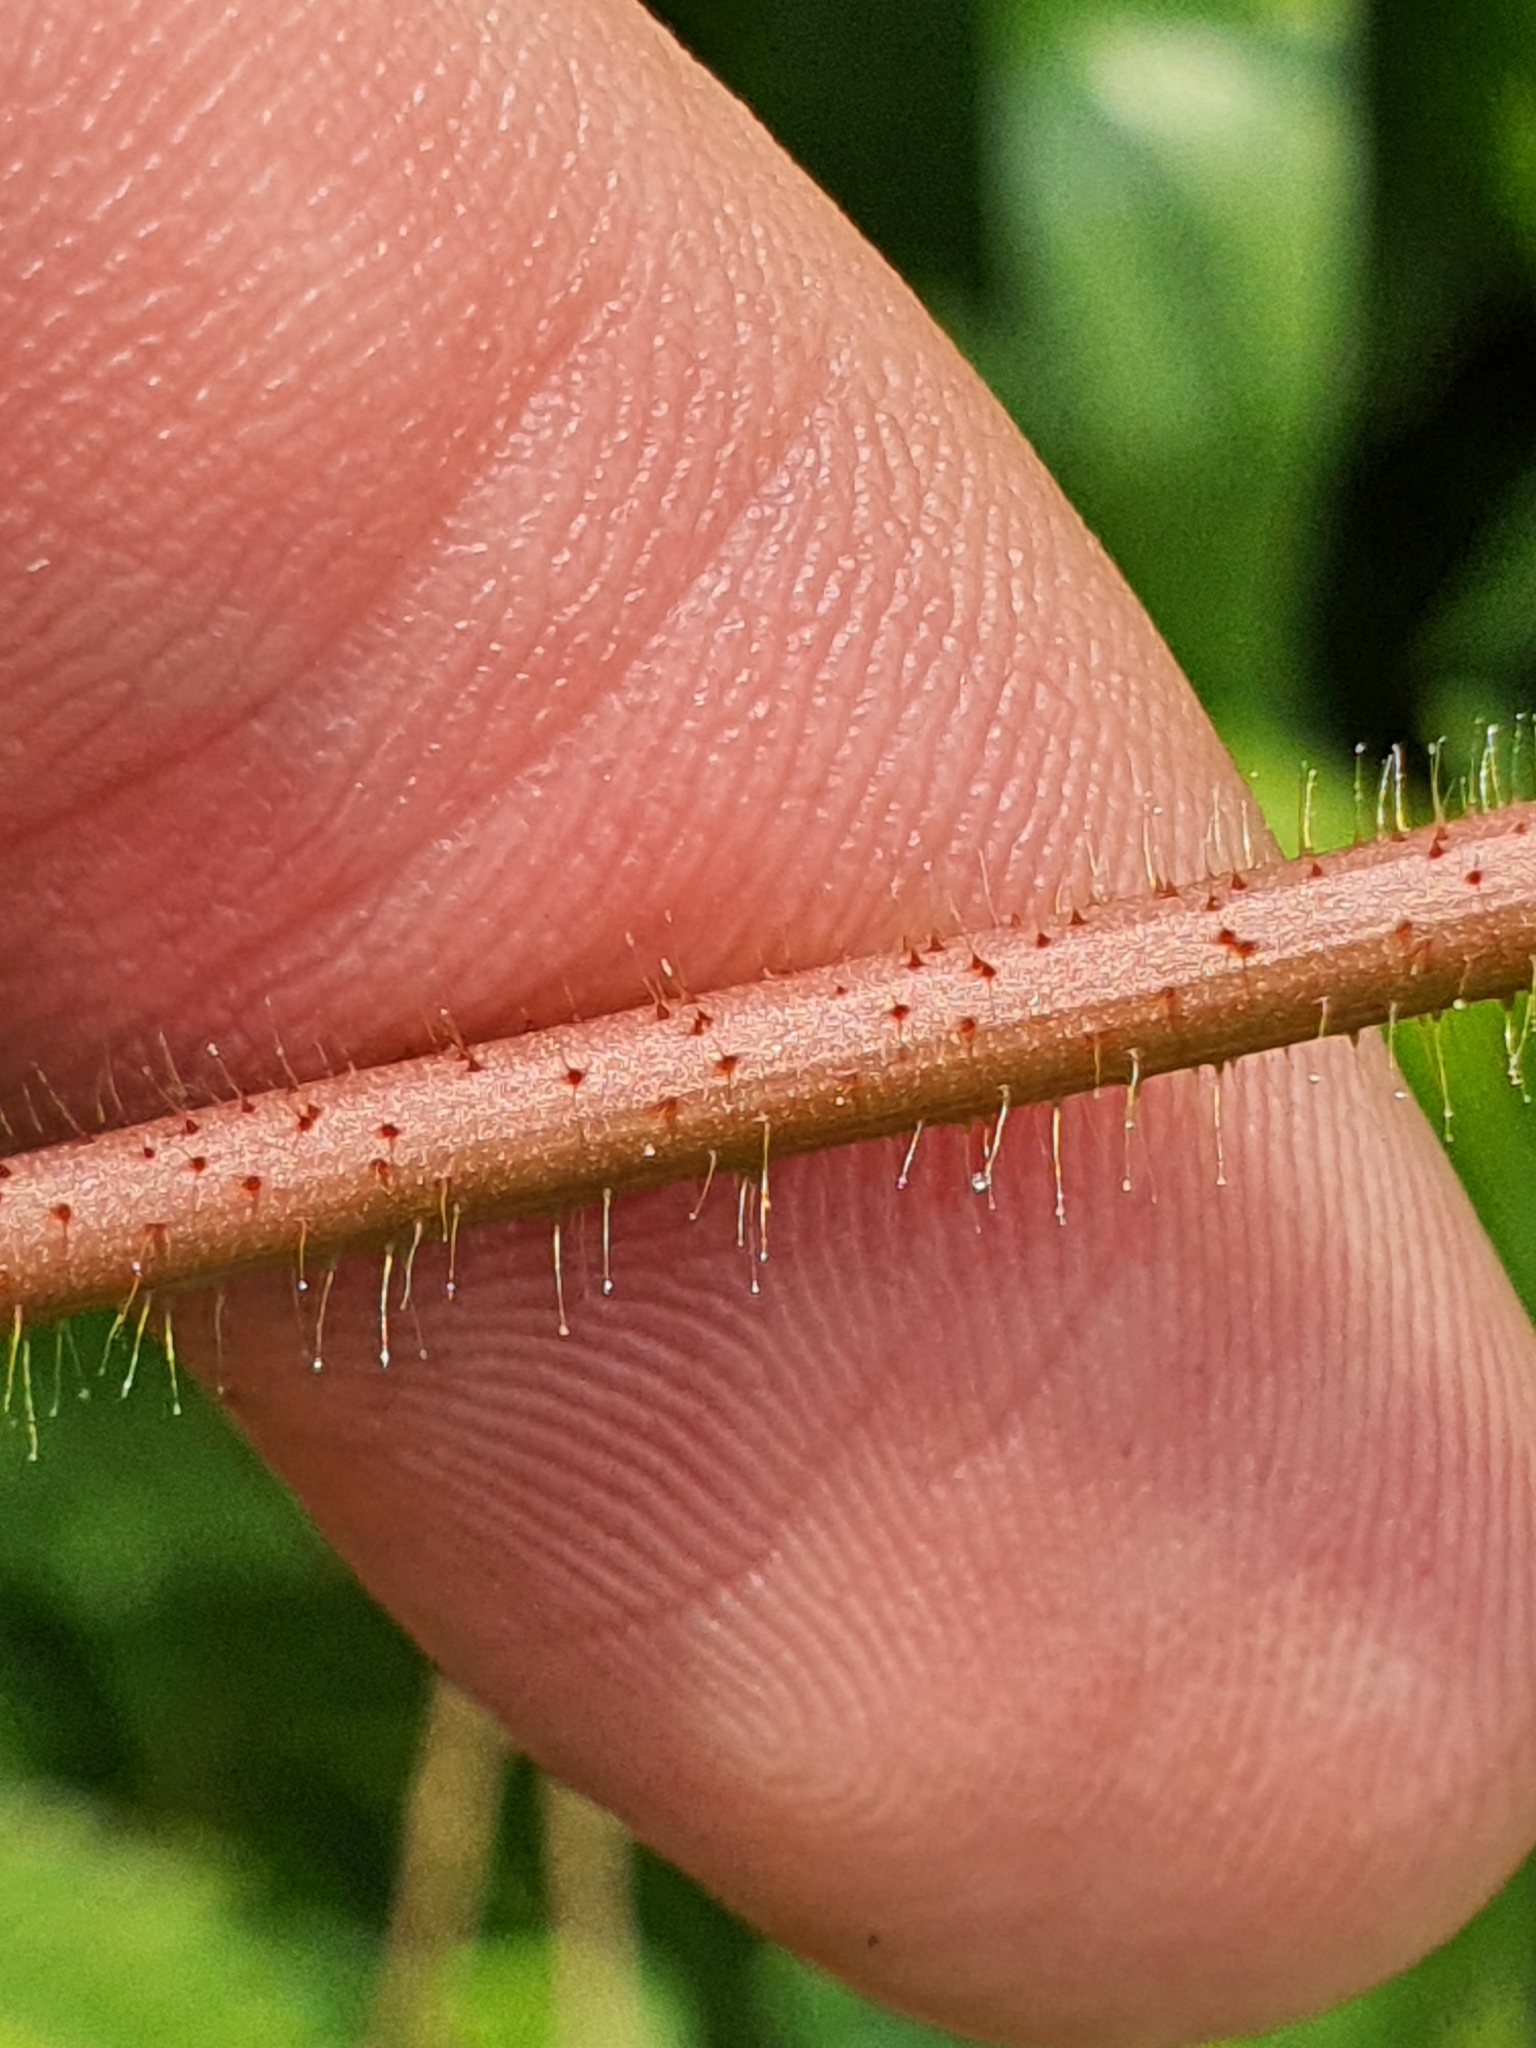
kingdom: Plantae
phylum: Tracheophyta
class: Magnoliopsida
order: Fabales
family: Fabaceae
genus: Aeschynomene
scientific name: Aeschynomene americana
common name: Joint-vetch
